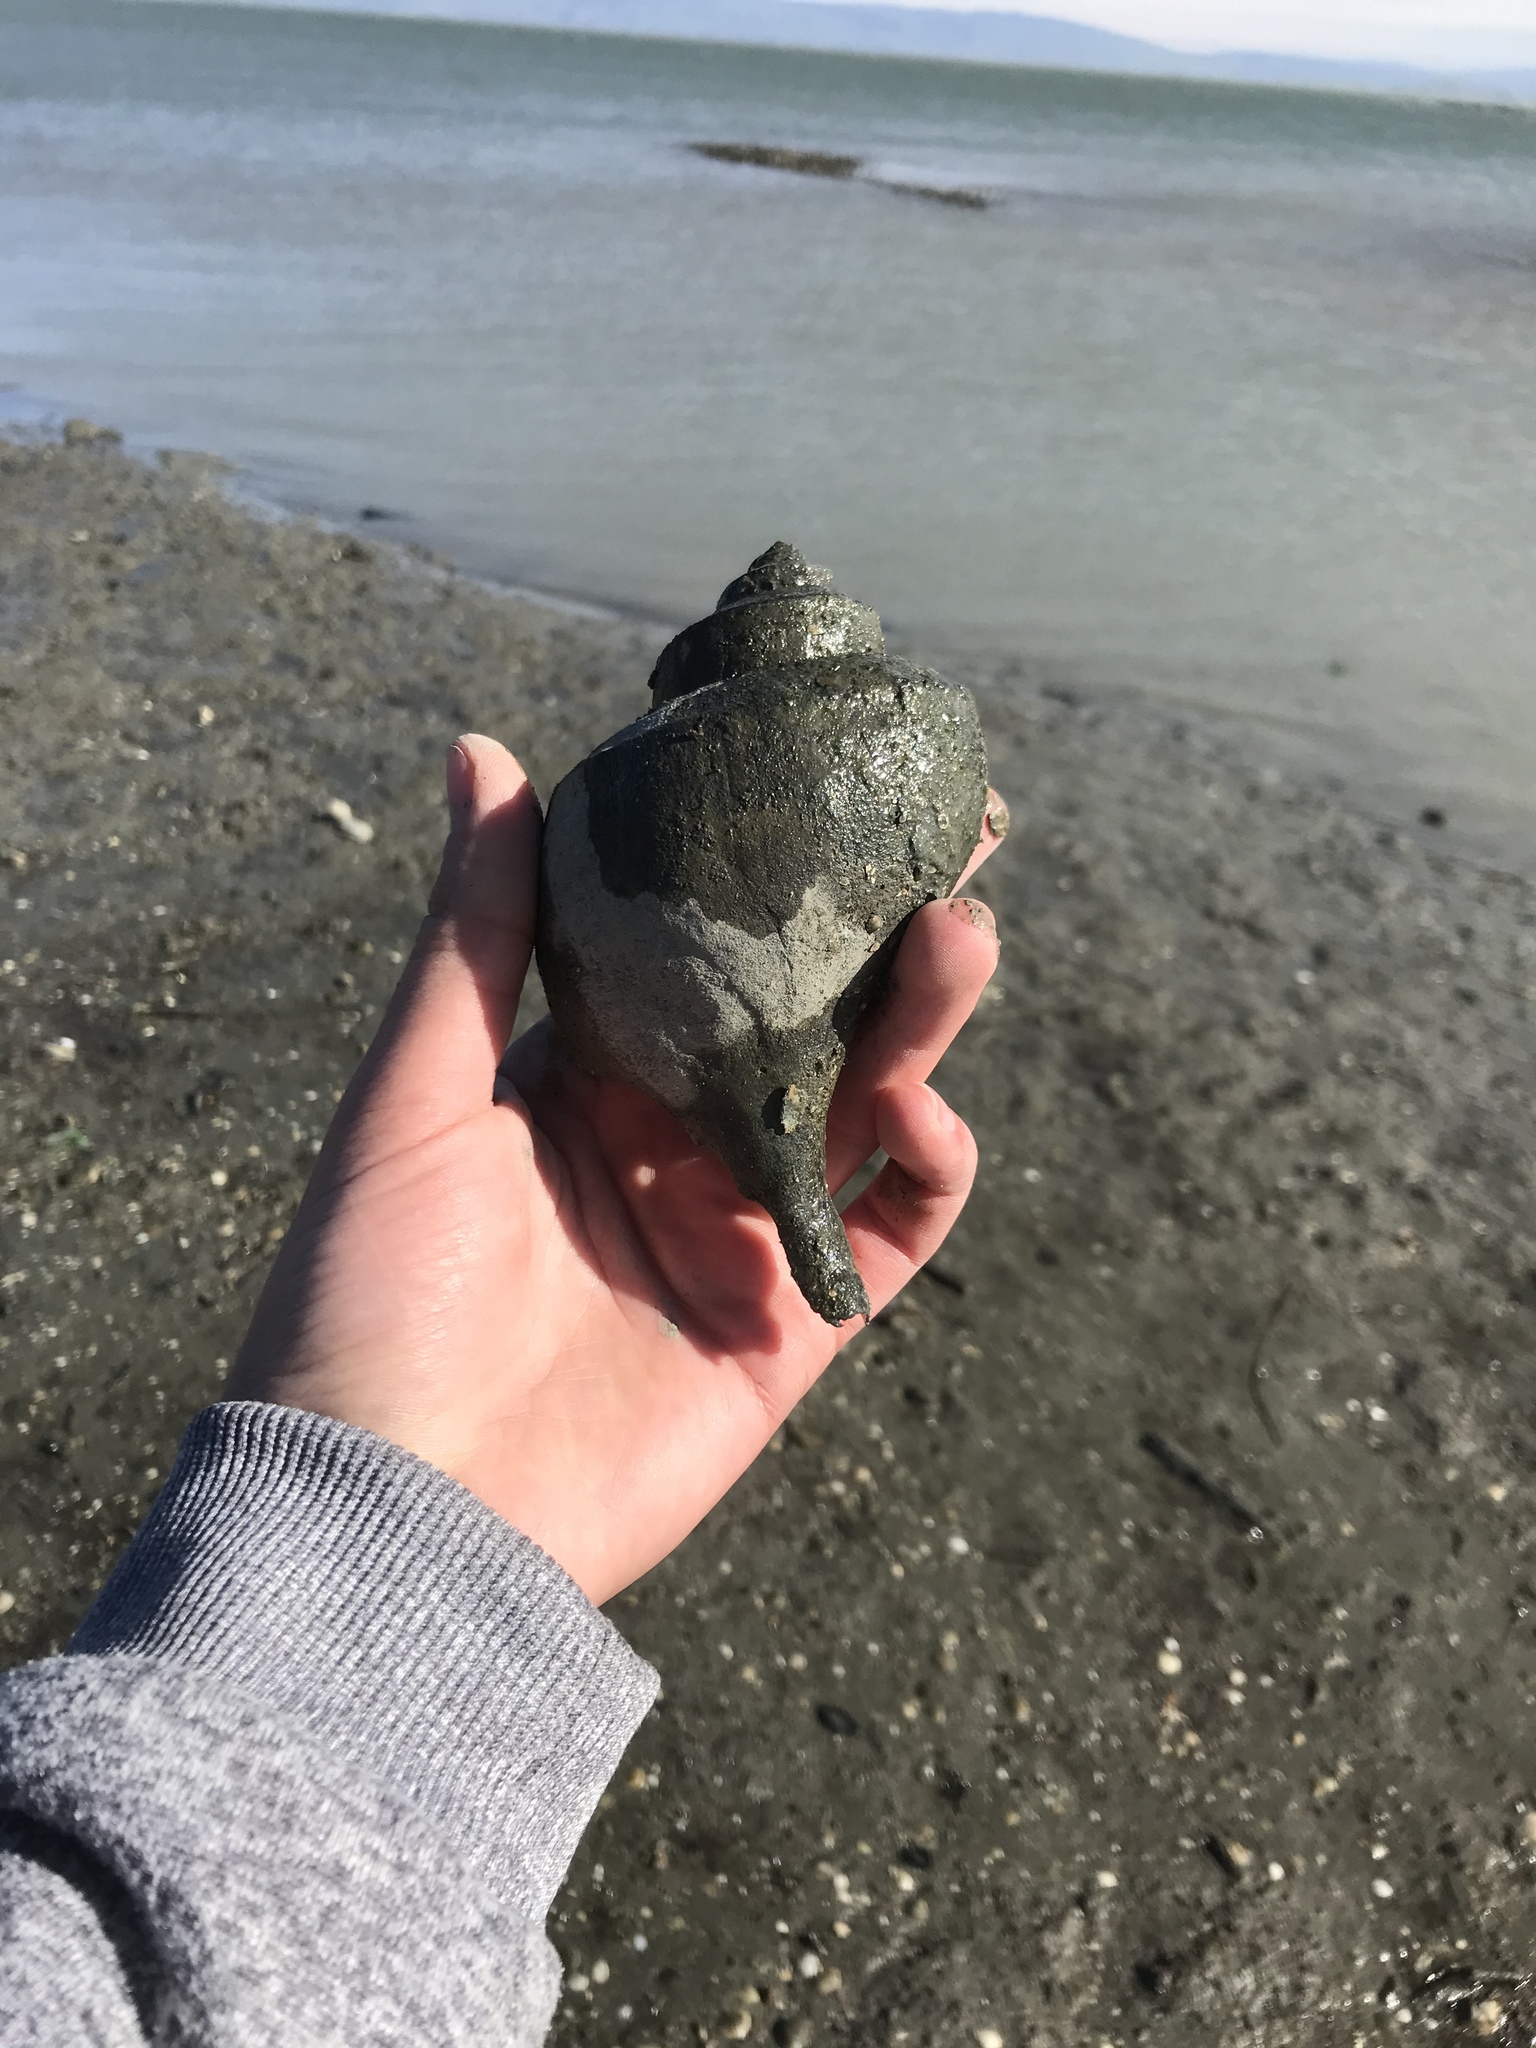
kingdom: Animalia
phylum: Mollusca
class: Gastropoda
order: Neogastropoda
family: Busyconidae
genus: Busycotypus
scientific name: Busycotypus canaliculatus
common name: Channeled whelk
